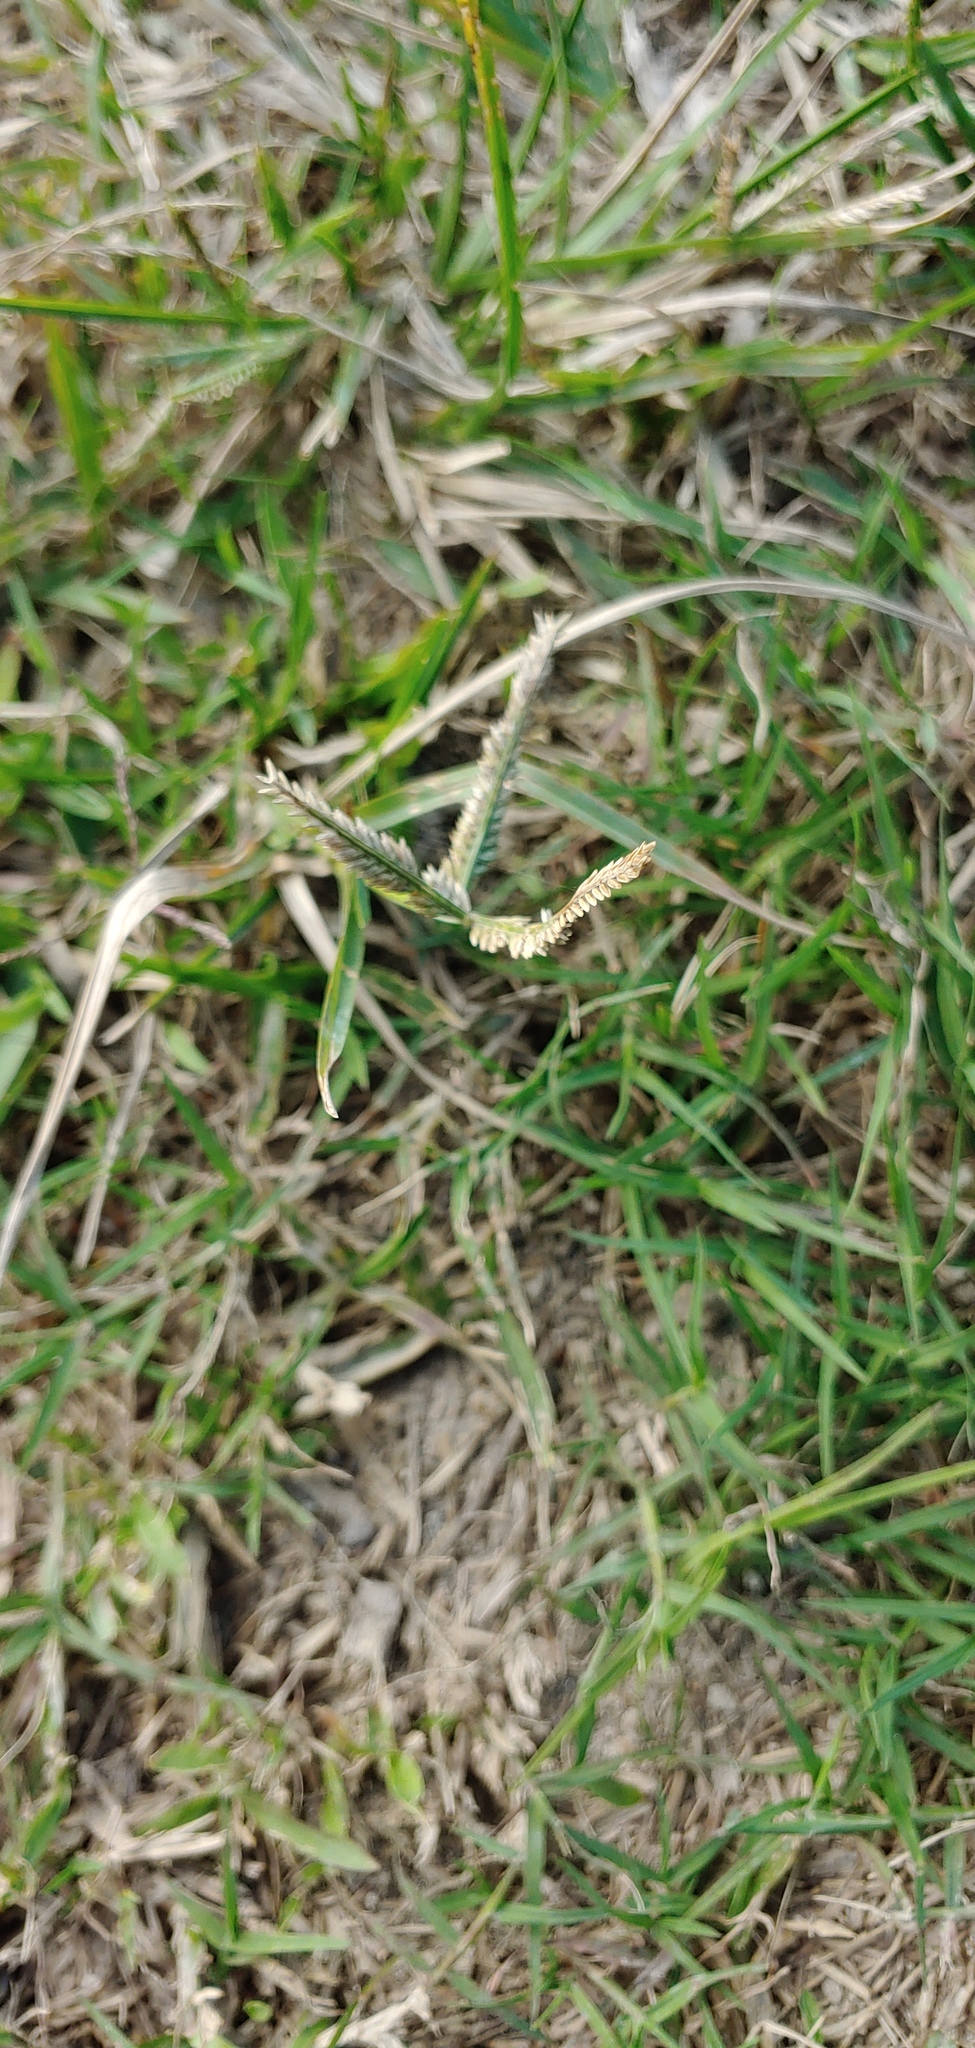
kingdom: Plantae
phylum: Tracheophyta
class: Liliopsida
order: Poales
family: Poaceae
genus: Eleusine
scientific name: Eleusine indica
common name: Yard-grass
